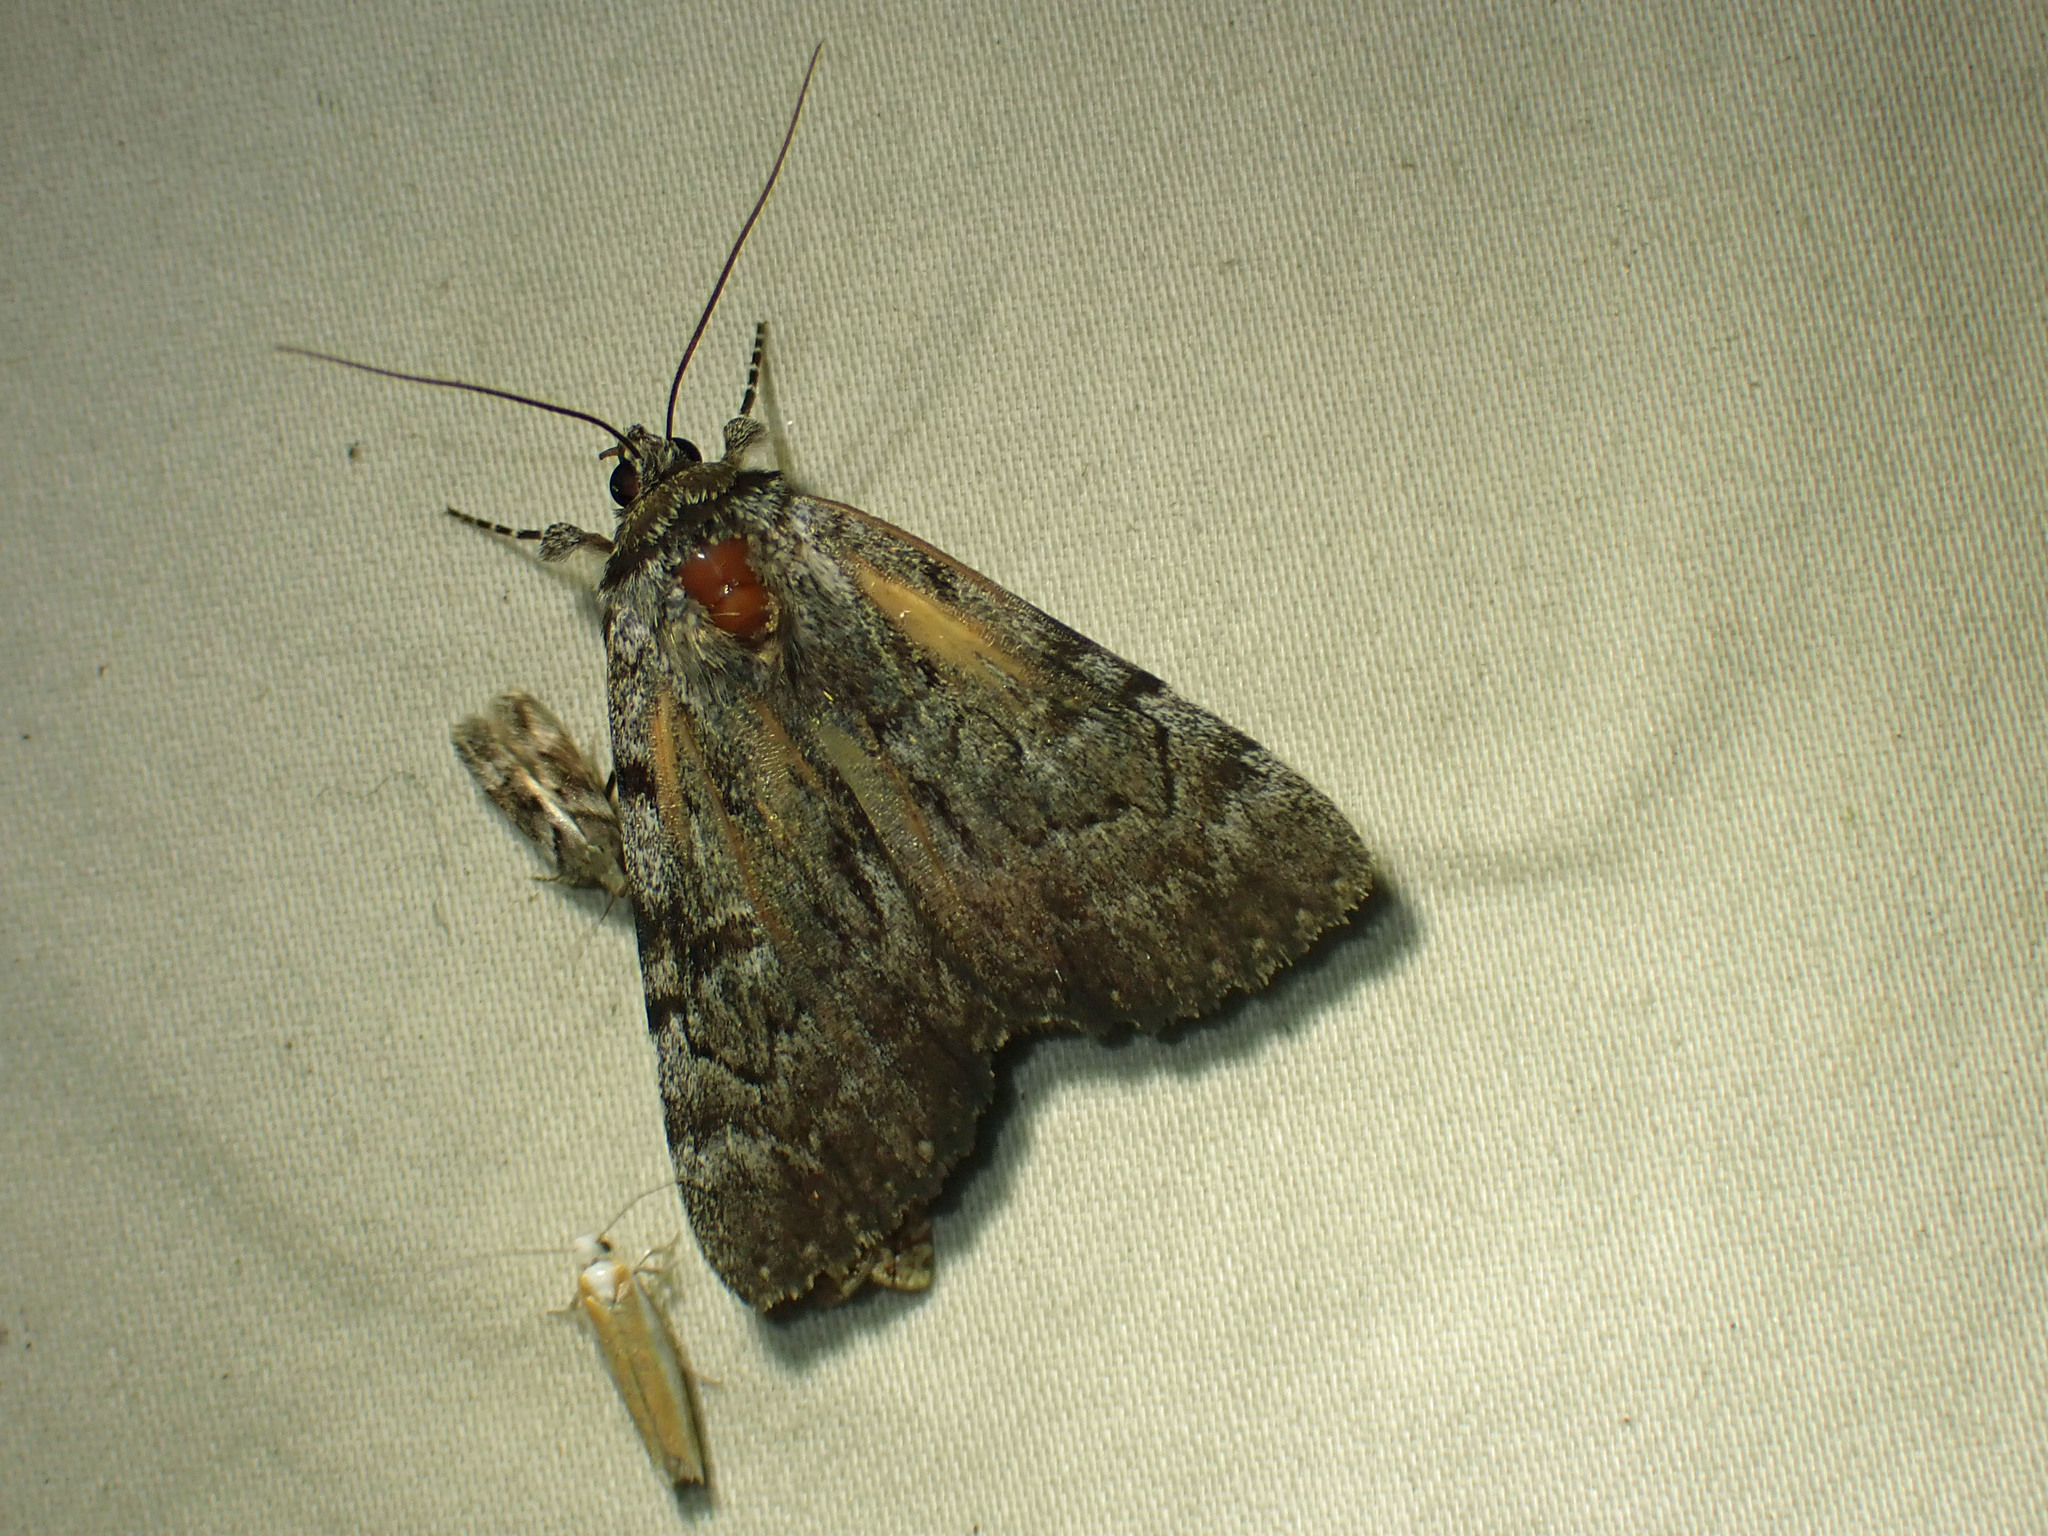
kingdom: Animalia
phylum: Arthropoda
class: Insecta
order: Lepidoptera
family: Erebidae
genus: Catocala
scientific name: Catocala sordida
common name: Sordid underwing
